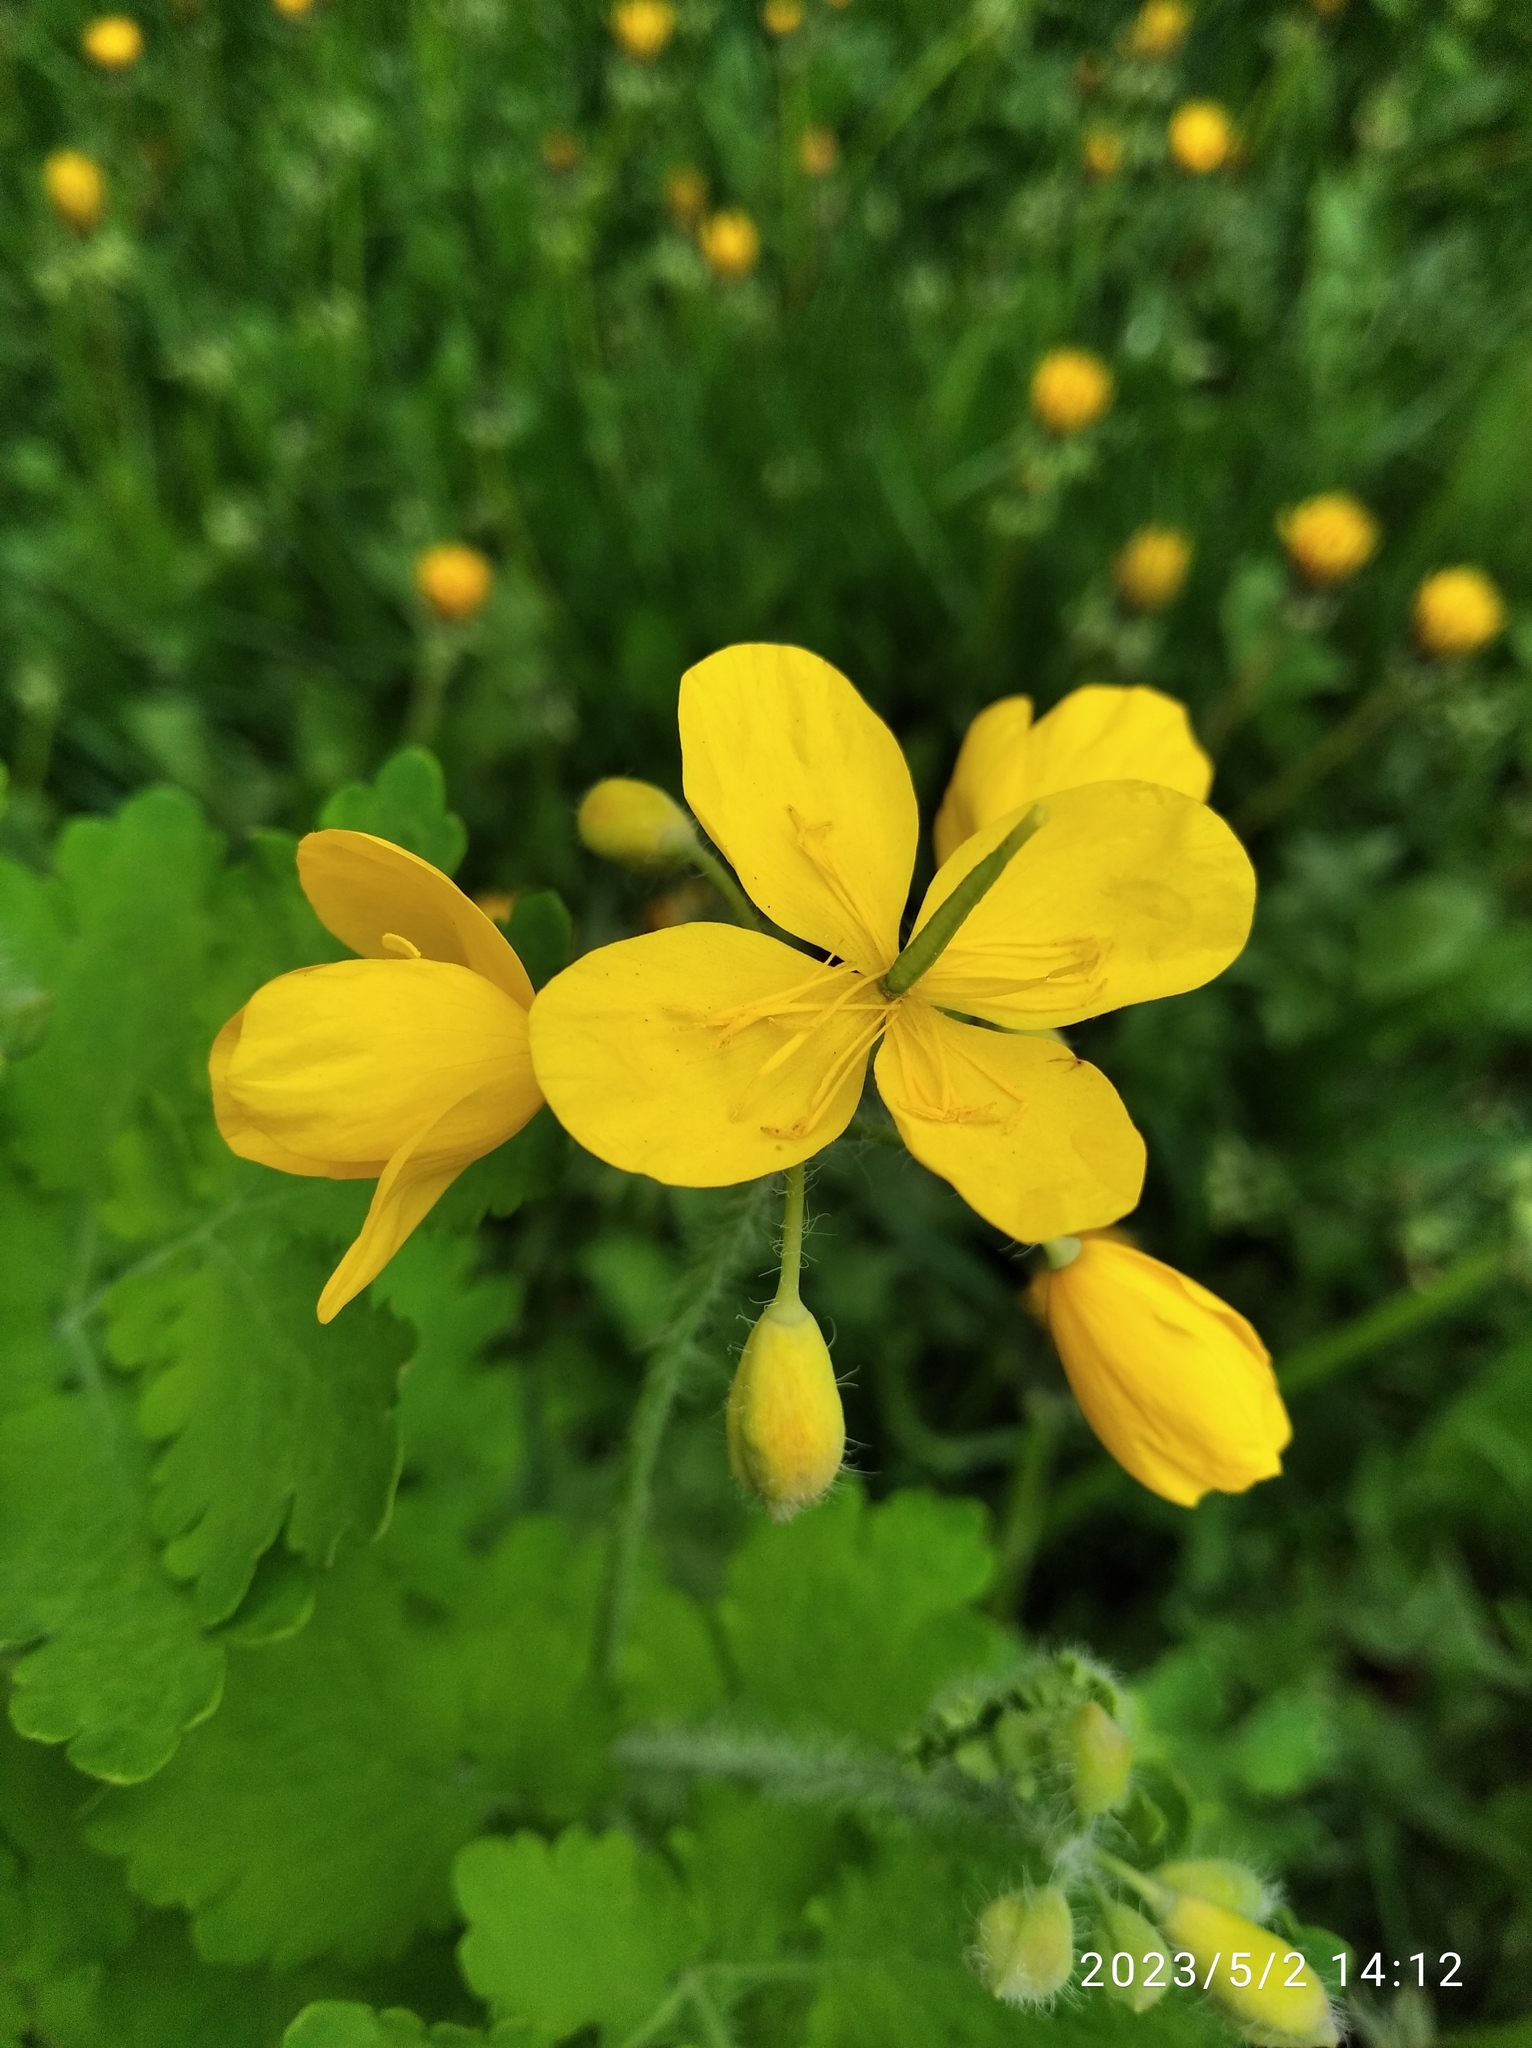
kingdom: Plantae
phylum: Tracheophyta
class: Magnoliopsida
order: Ranunculales
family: Papaveraceae
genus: Chelidonium
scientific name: Chelidonium majus
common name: Greater celandine
